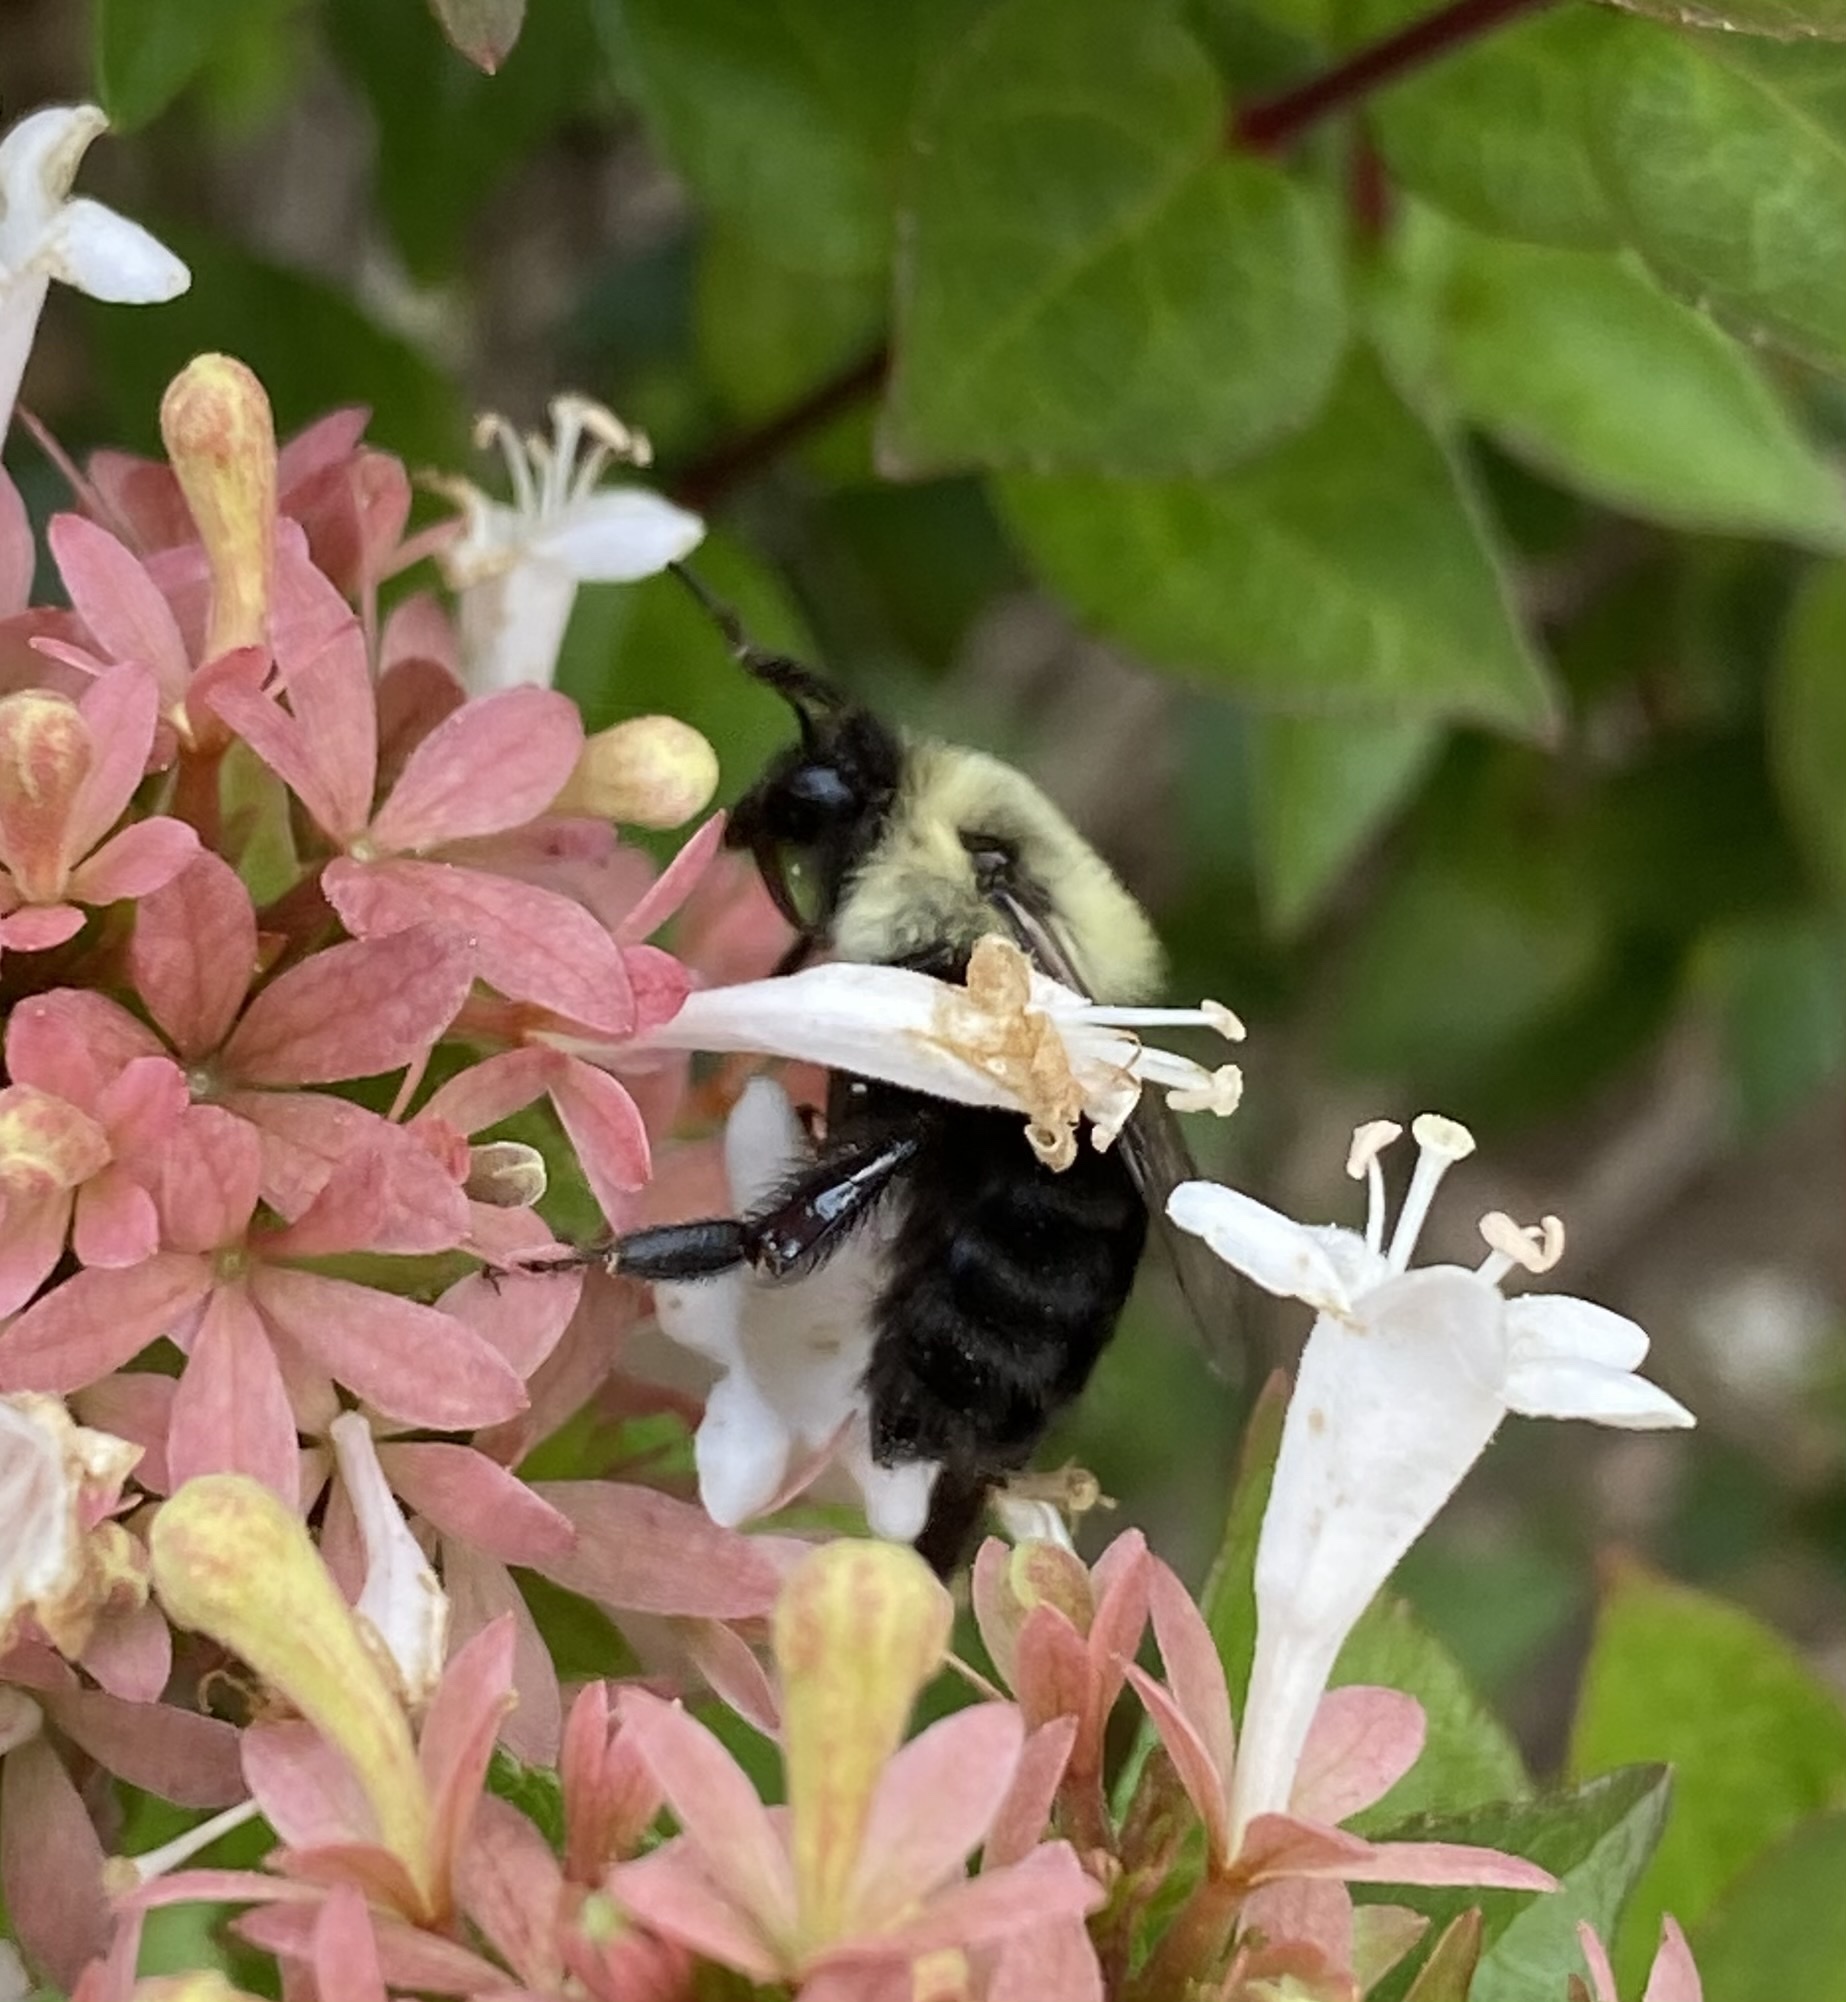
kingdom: Animalia
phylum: Arthropoda
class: Insecta
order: Hymenoptera
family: Apidae
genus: Bombus
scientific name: Bombus impatiens
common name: Common eastern bumble bee
